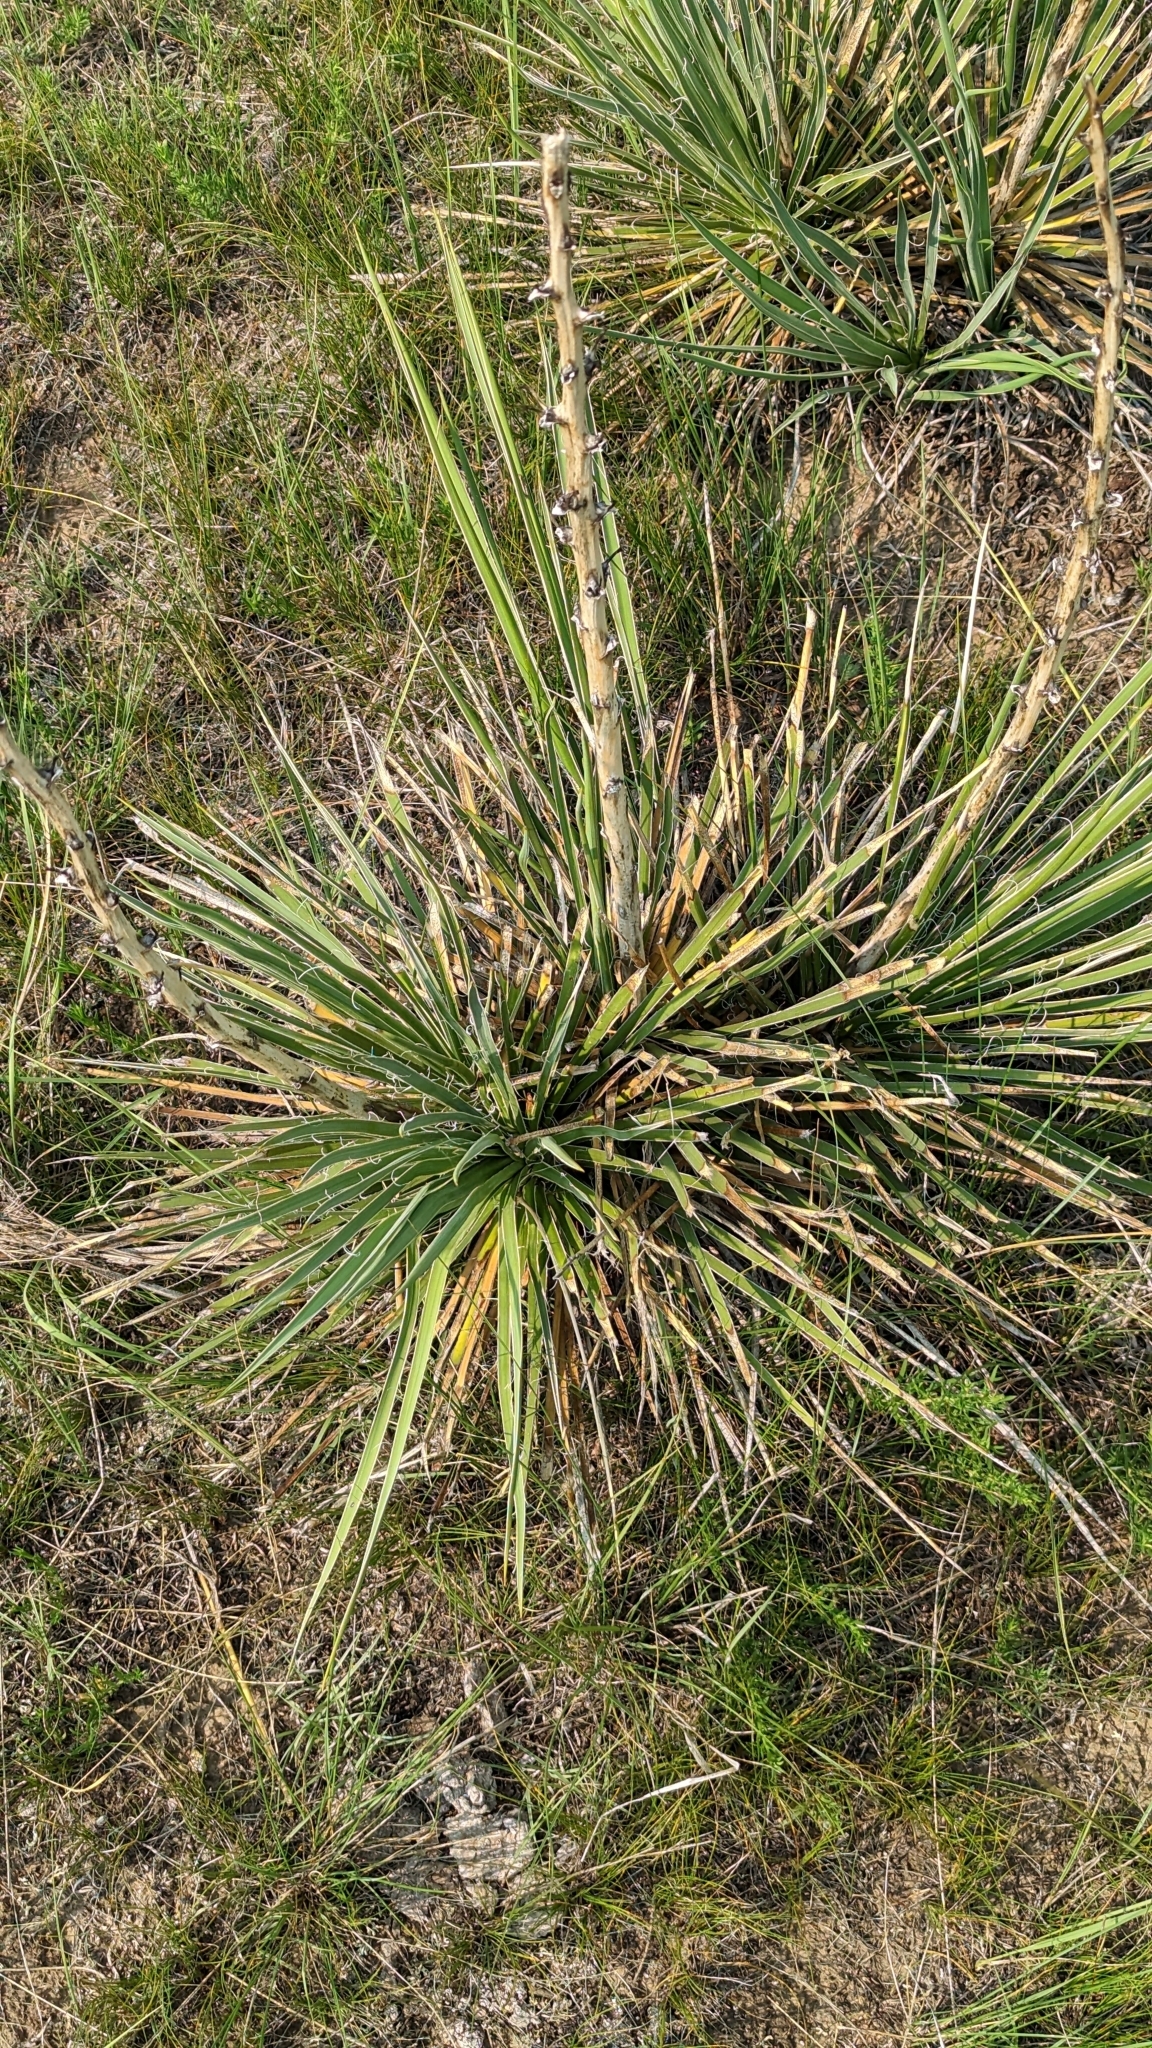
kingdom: Plantae
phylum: Tracheophyta
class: Liliopsida
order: Asparagales
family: Asparagaceae
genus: Yucca
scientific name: Yucca glauca
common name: Great plains yucca
